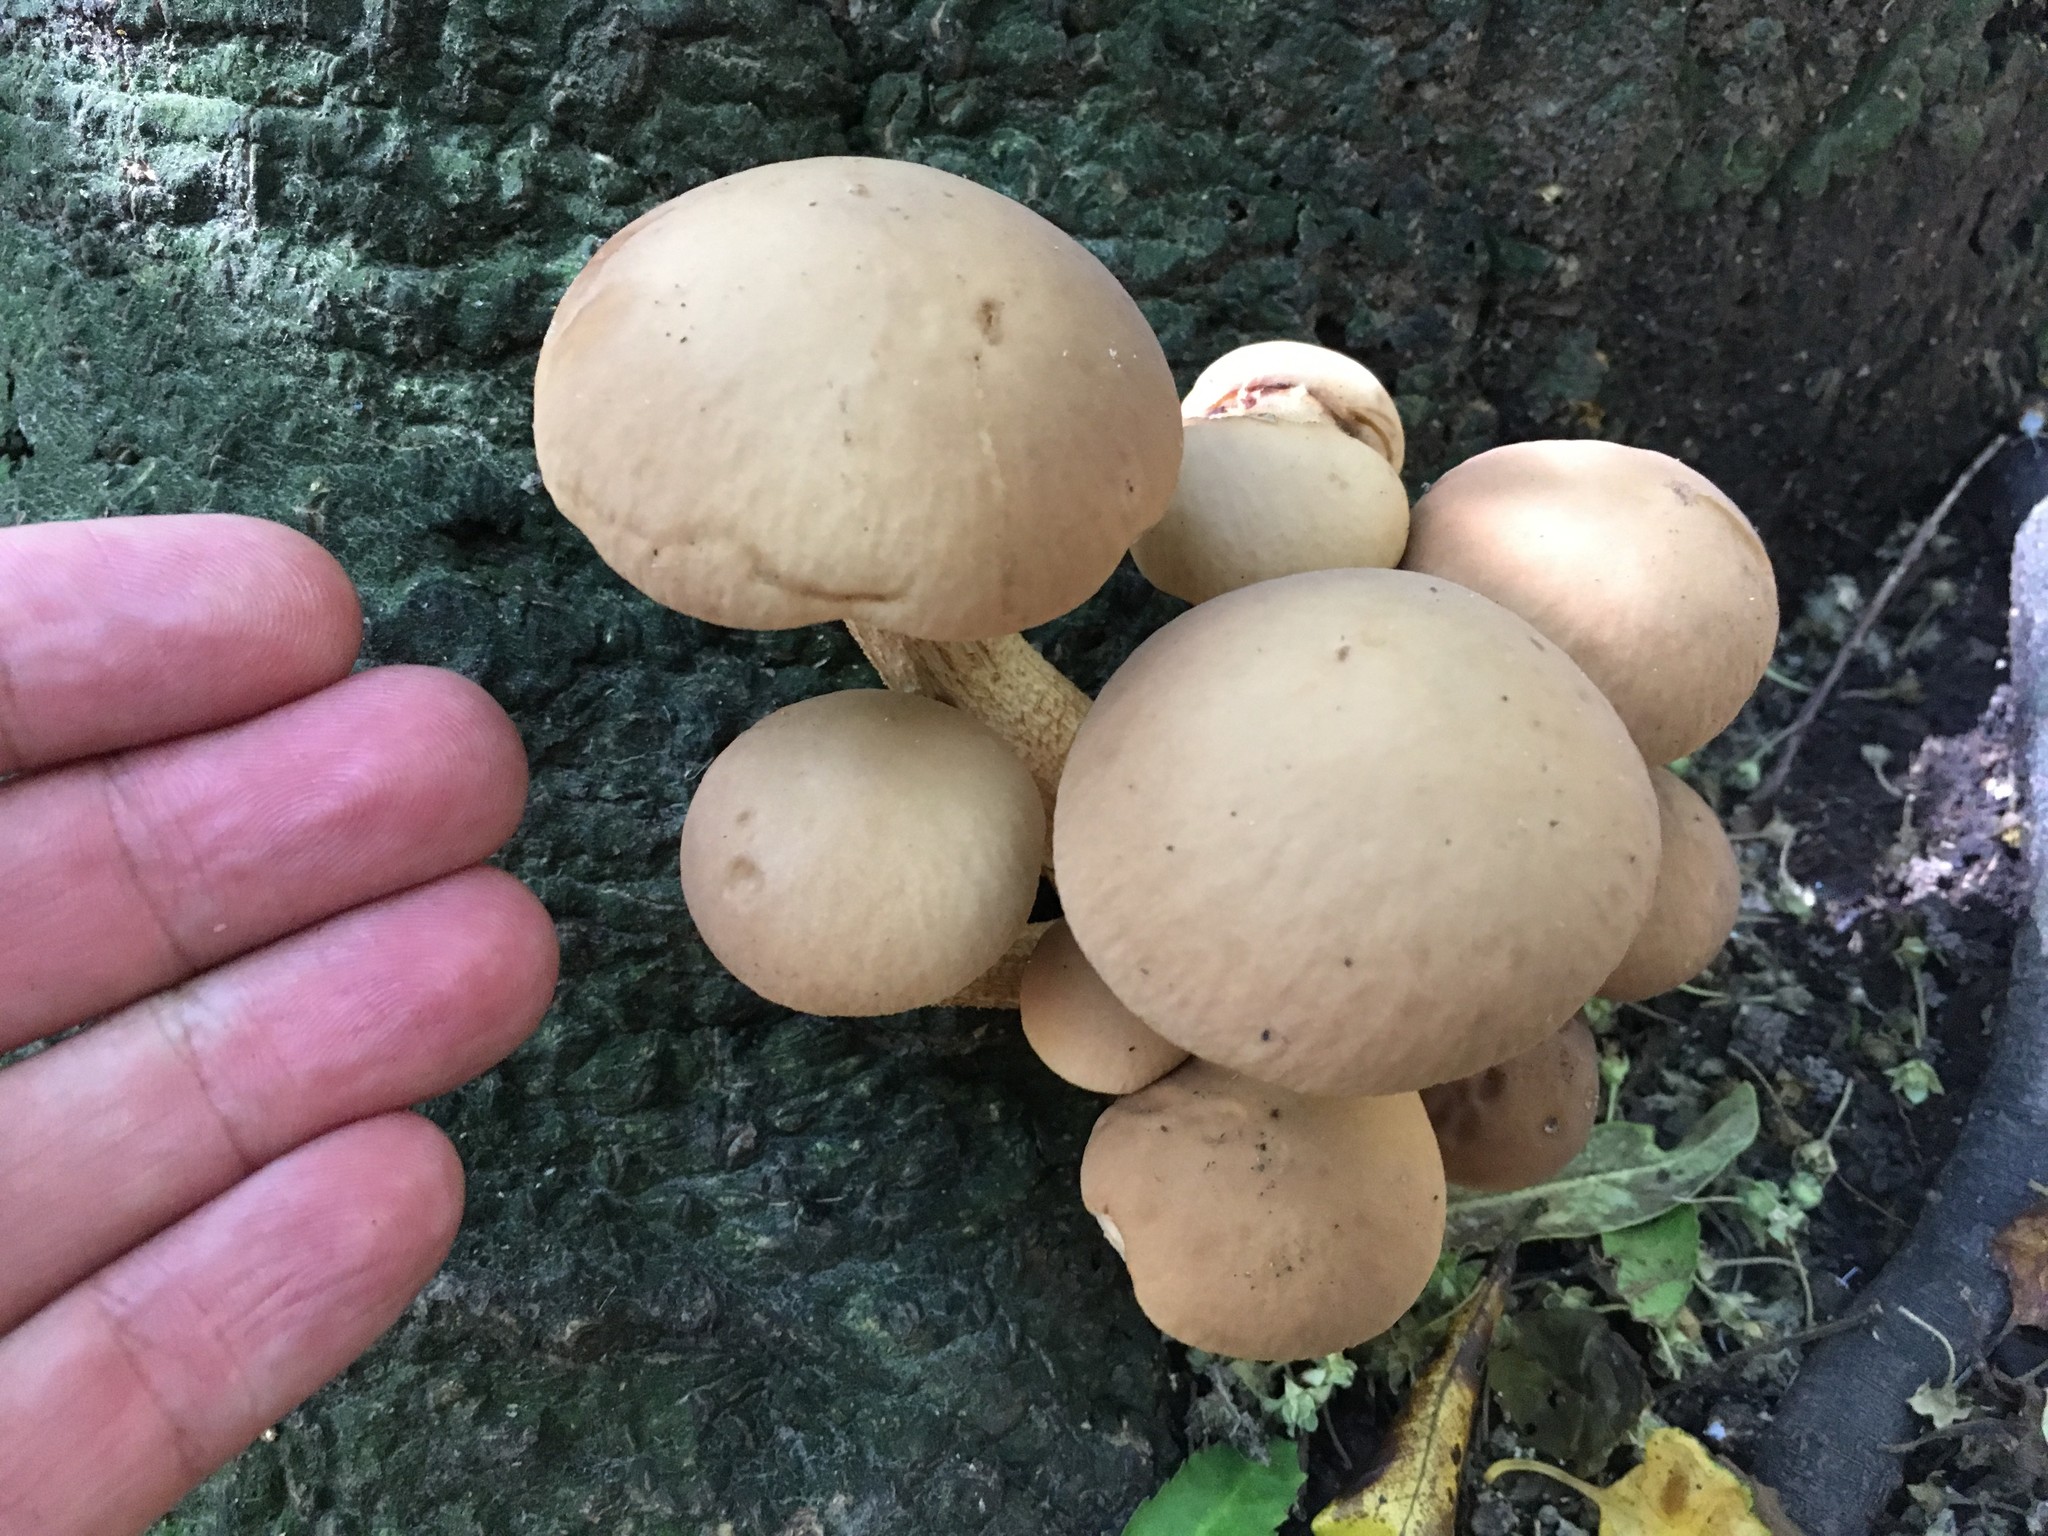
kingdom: Fungi
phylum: Basidiomycota
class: Agaricomycetes
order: Agaricales
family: Tubariaceae
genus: Cyclocybe
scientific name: Cyclocybe parasitica
